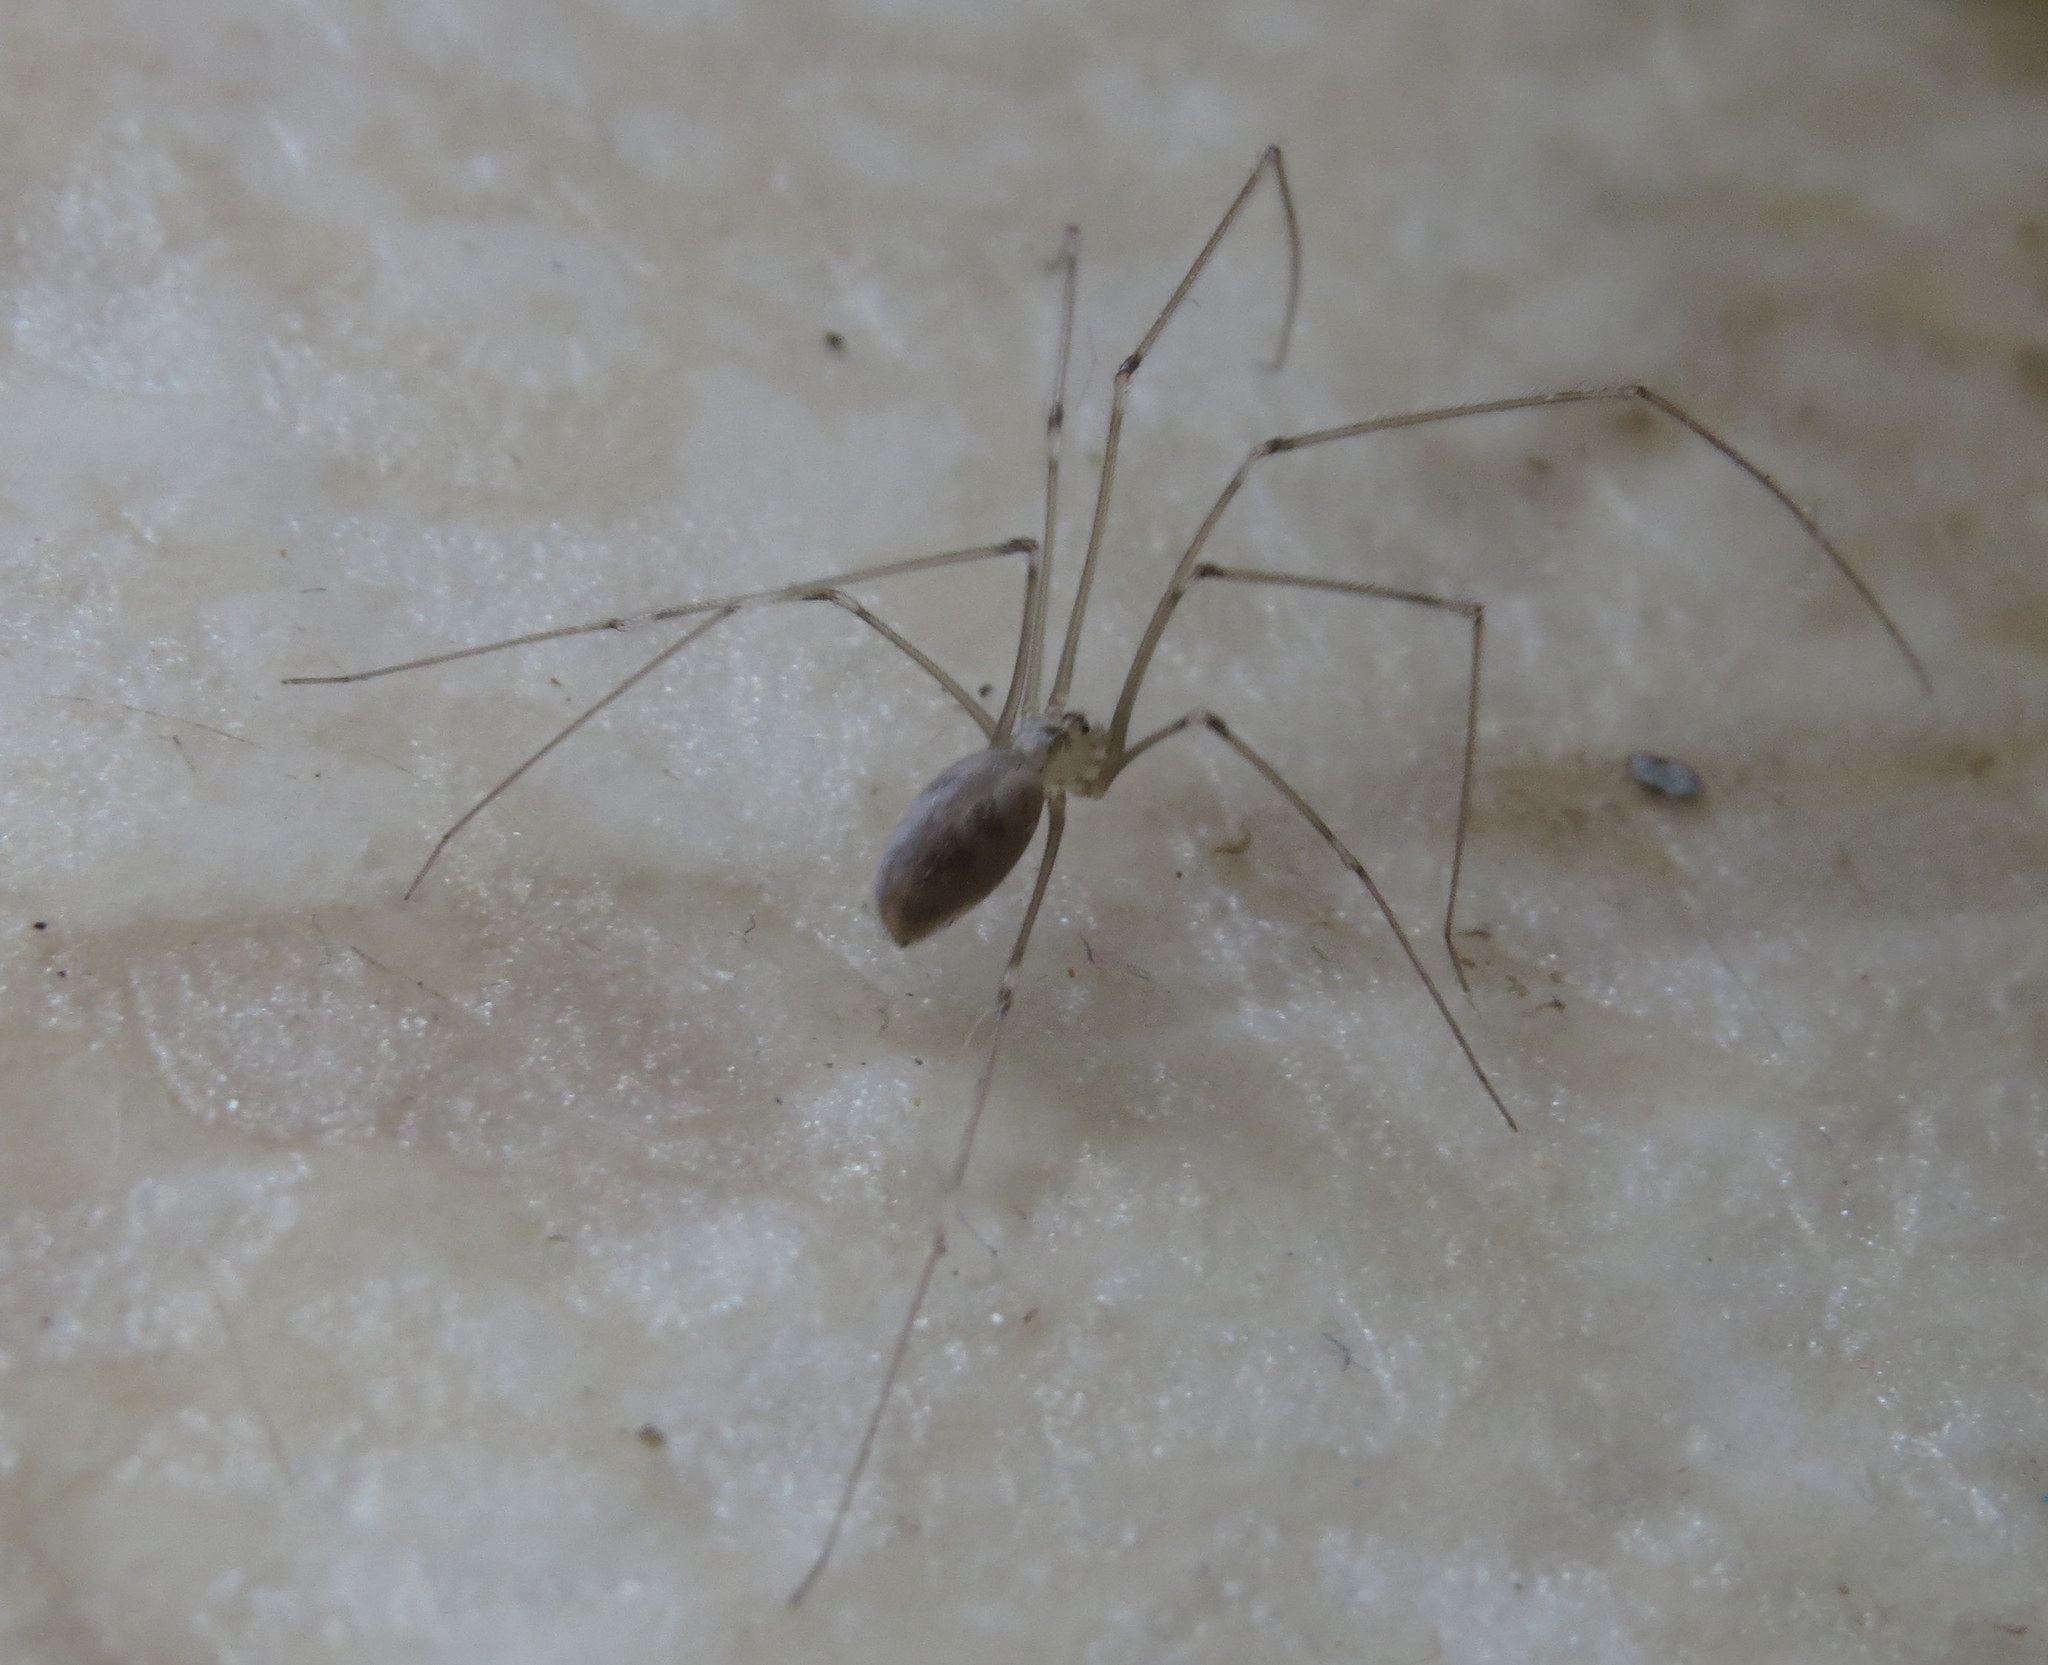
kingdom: Animalia
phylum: Arthropoda
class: Arachnida
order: Araneae
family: Pholcidae
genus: Pholcus
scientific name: Pholcus phalangioides
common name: Longbodied cellar spider
